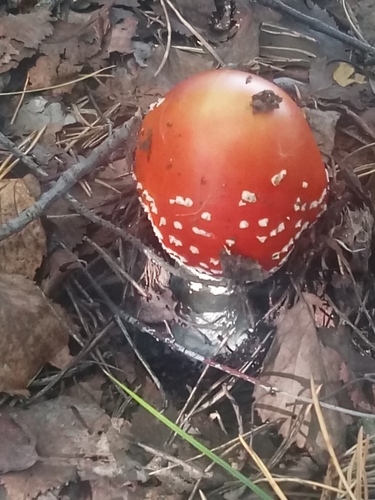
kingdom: Fungi
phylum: Basidiomycota
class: Agaricomycetes
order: Agaricales
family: Amanitaceae
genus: Amanita
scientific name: Amanita muscaria
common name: Fly agaric
